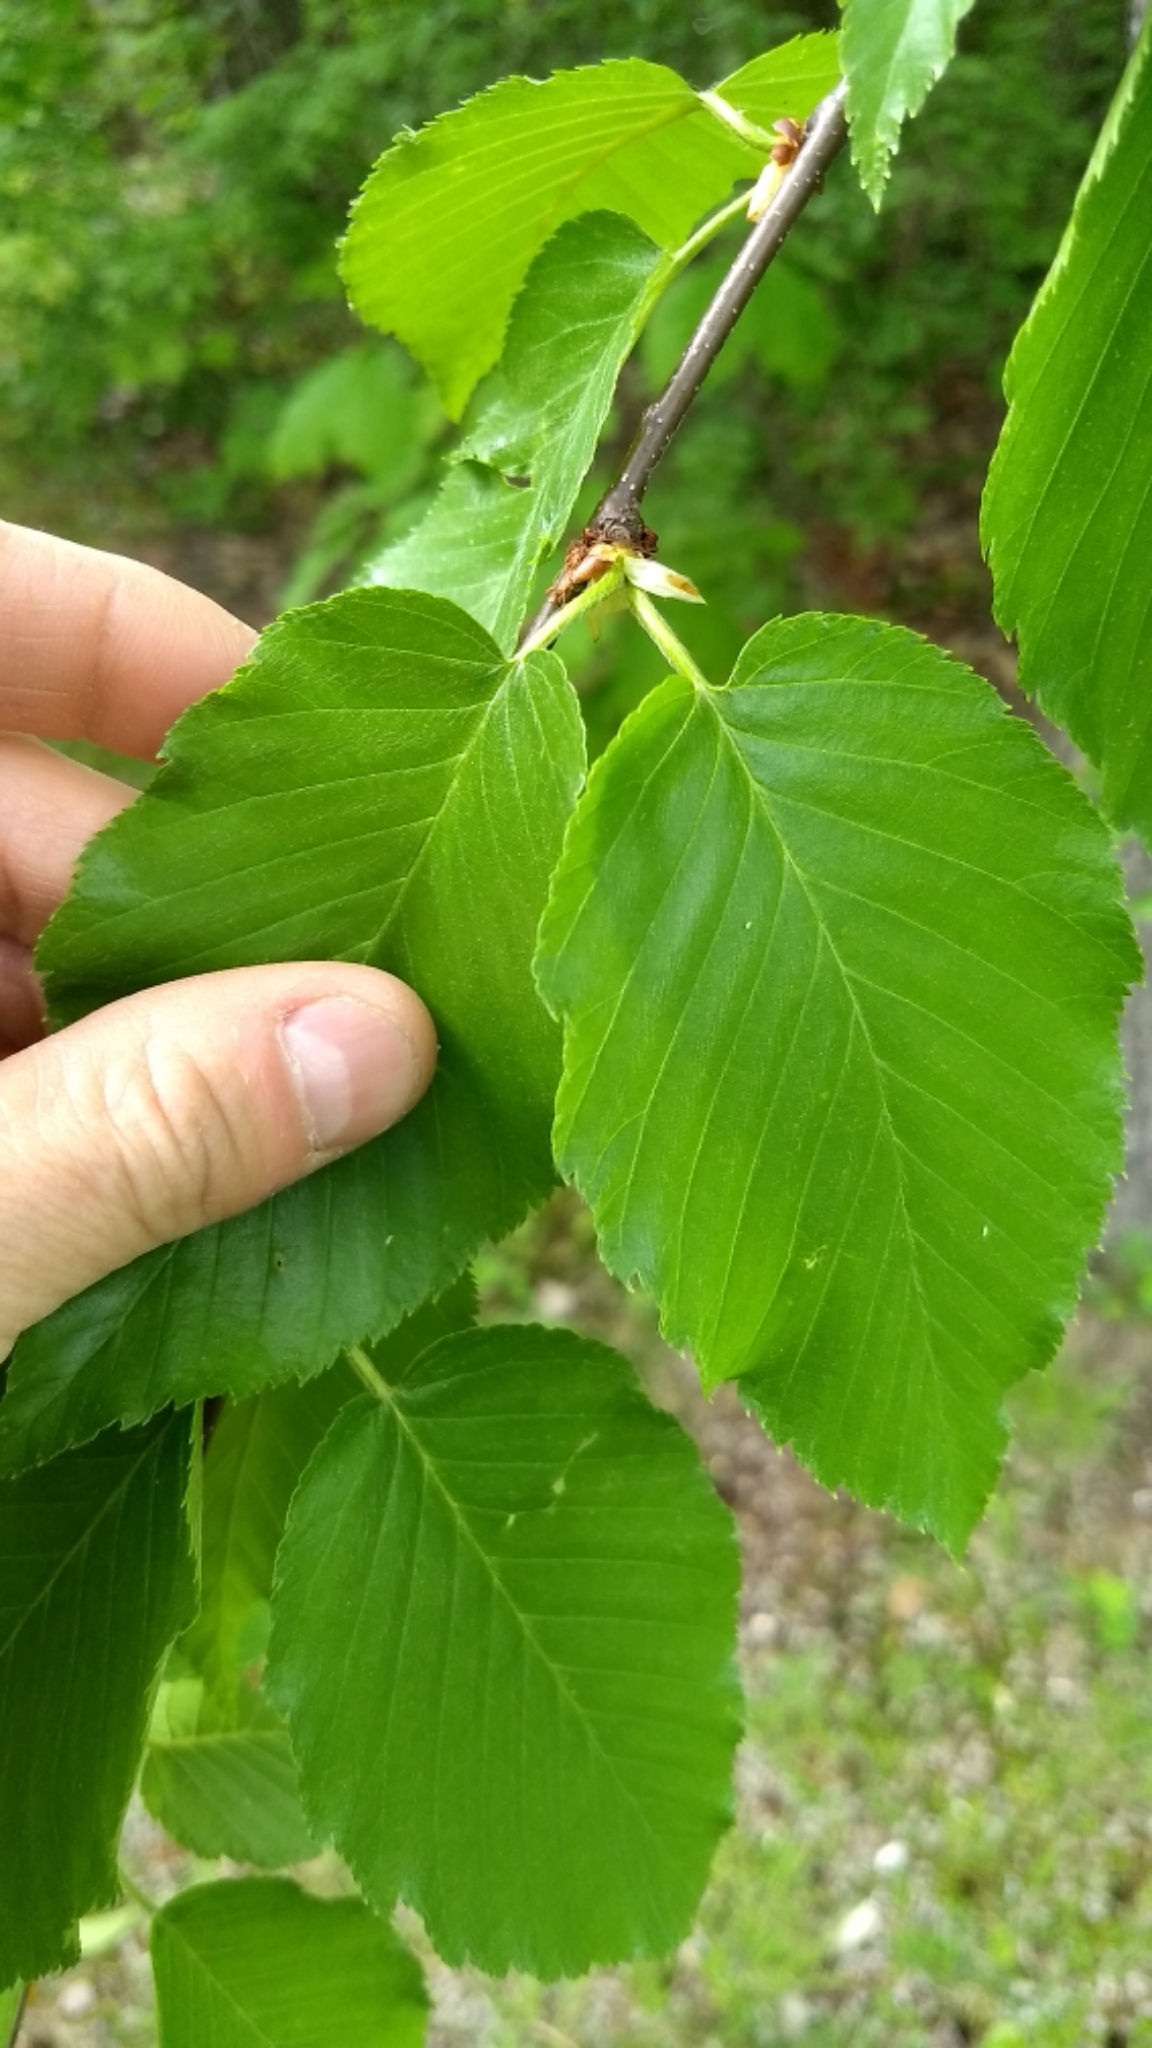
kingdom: Plantae
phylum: Tracheophyta
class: Magnoliopsida
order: Fagales
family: Betulaceae
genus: Betula
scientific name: Betula lenta
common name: Black birch
